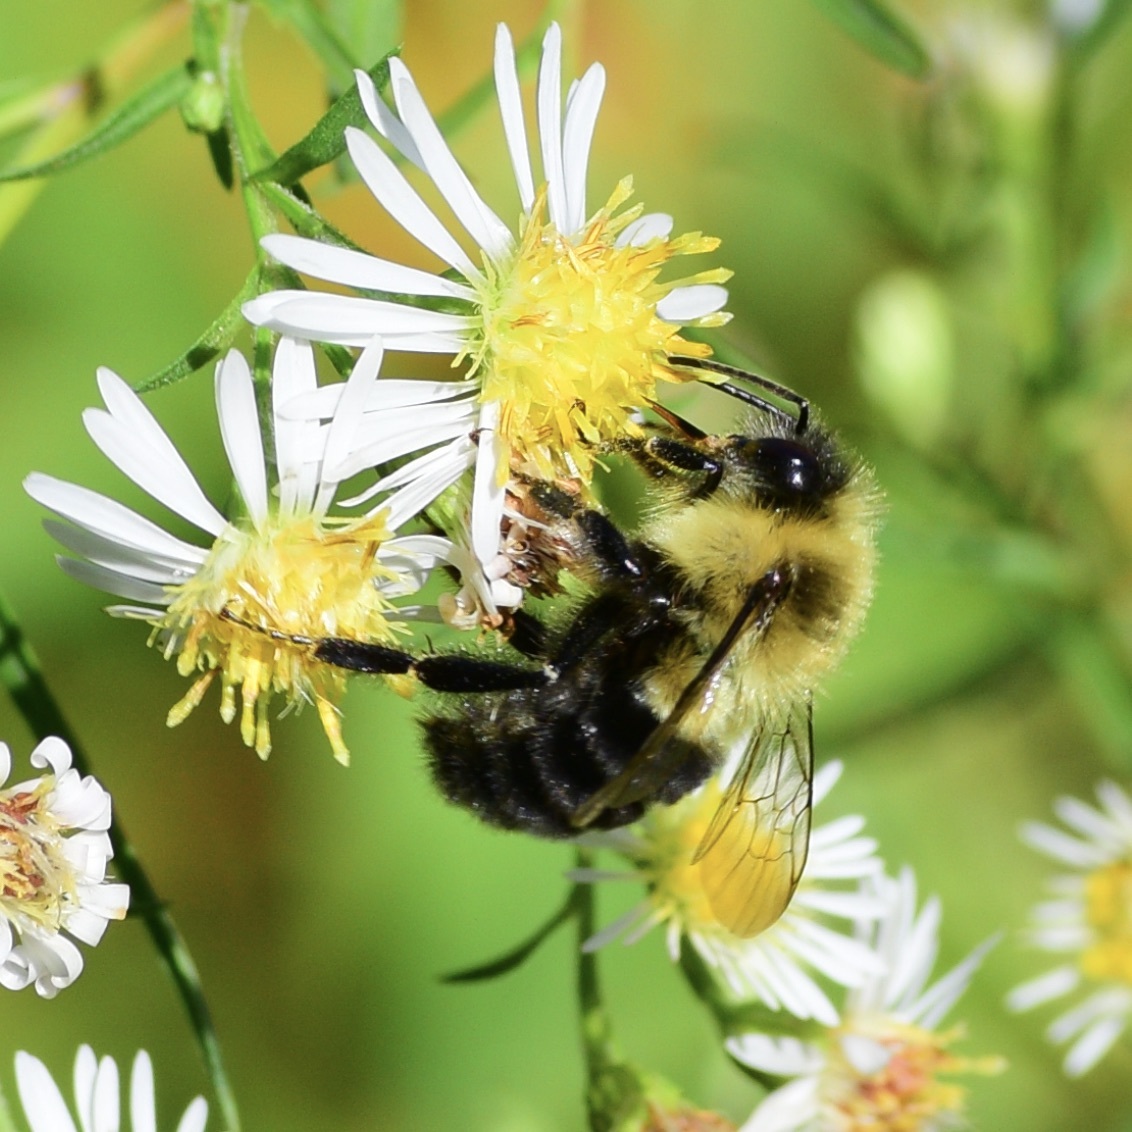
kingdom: Animalia
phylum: Arthropoda
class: Insecta
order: Hymenoptera
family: Apidae
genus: Bombus
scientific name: Bombus impatiens
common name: Common eastern bumble bee
